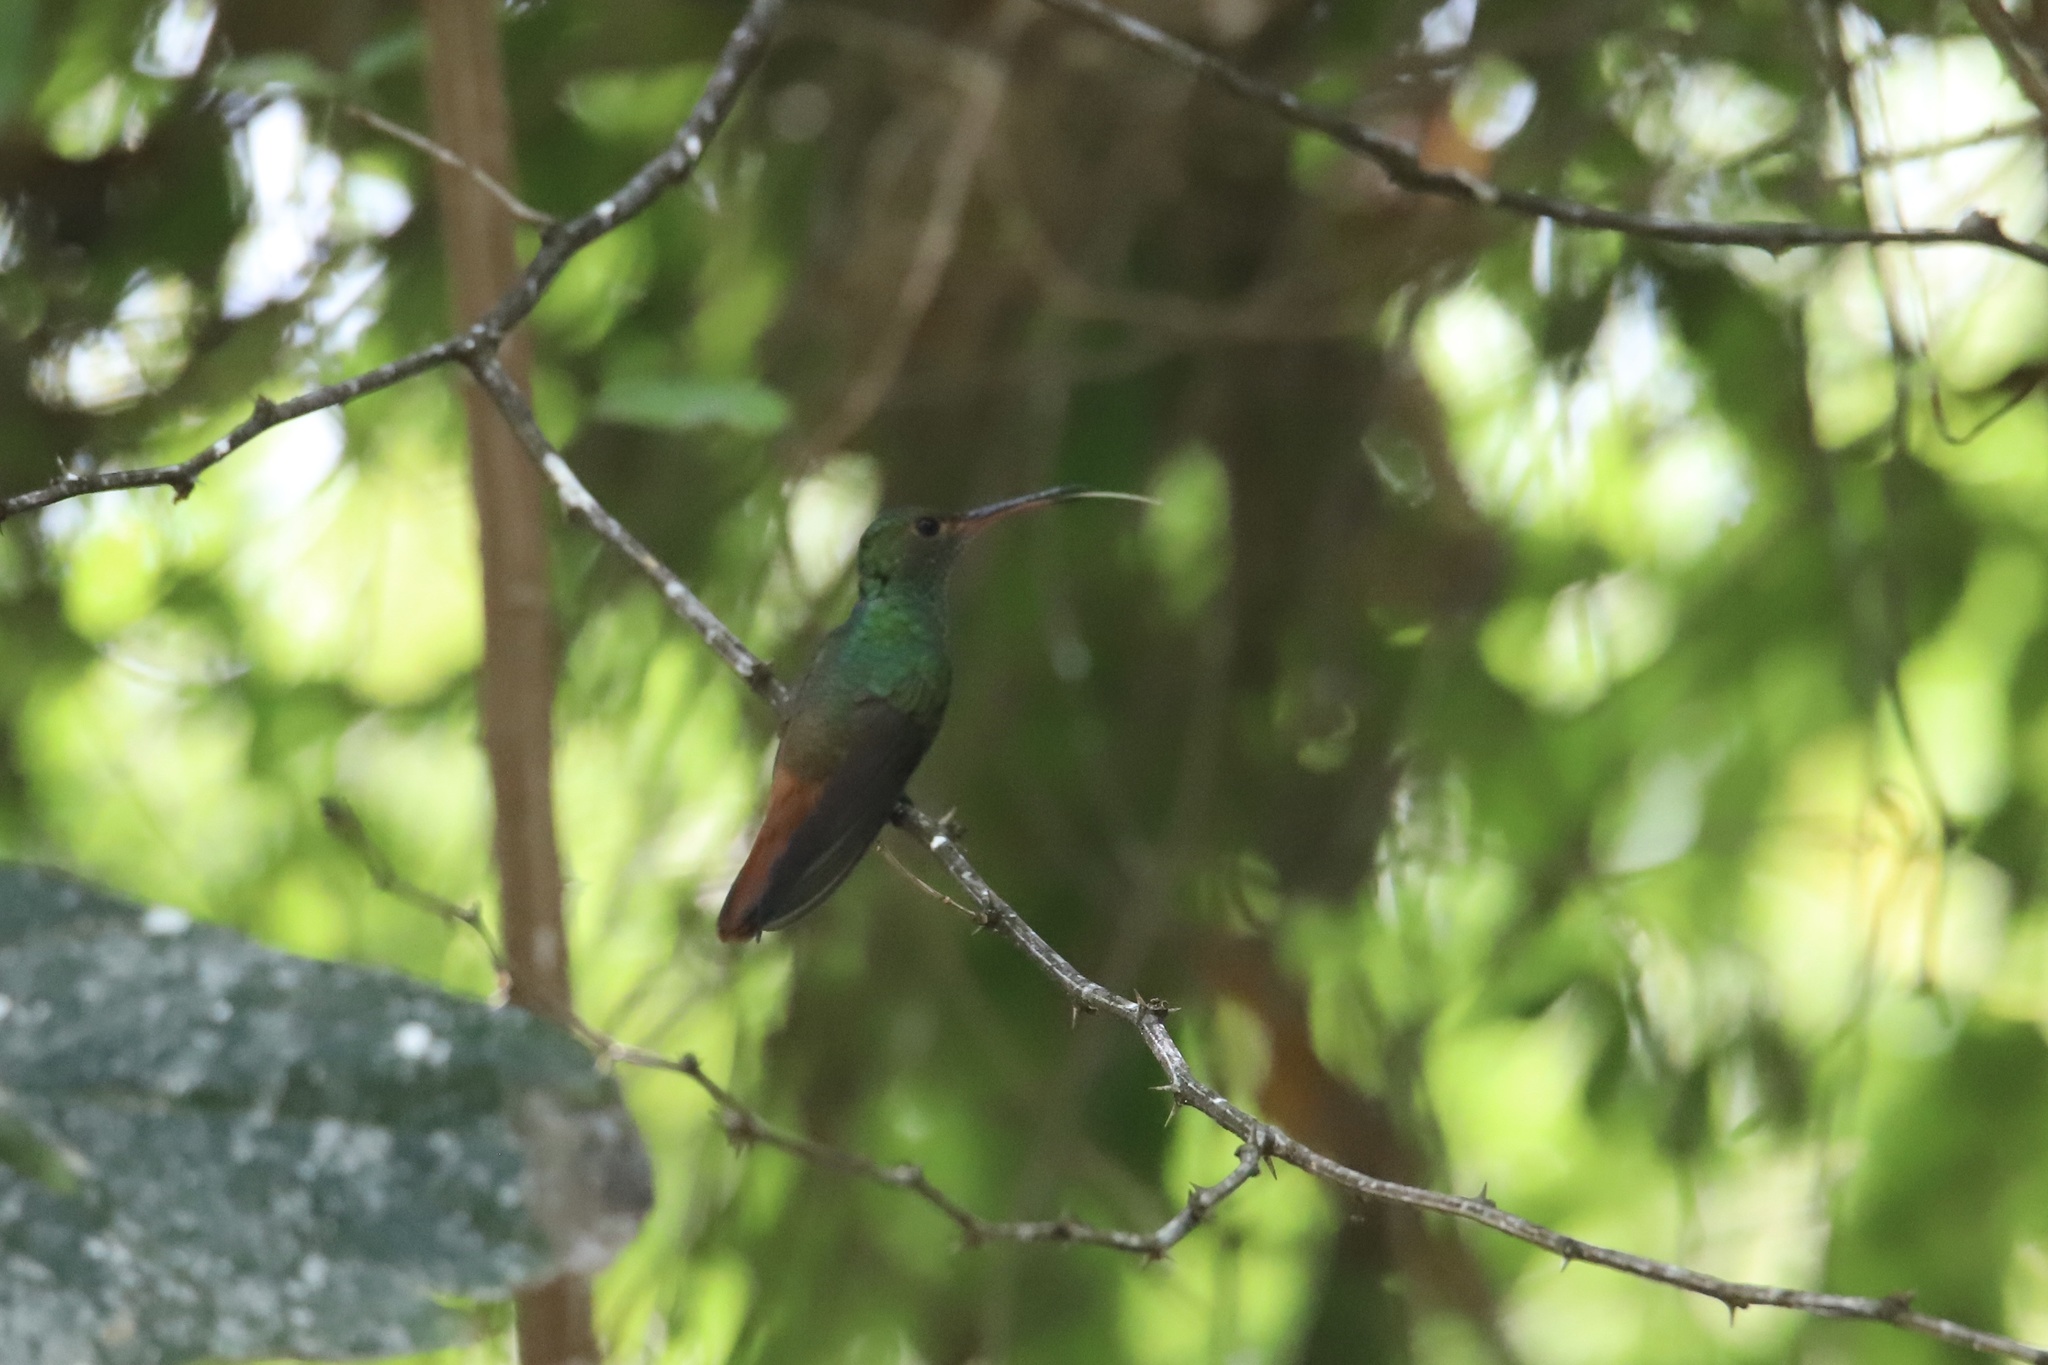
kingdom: Animalia
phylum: Chordata
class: Aves
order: Apodiformes
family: Trochilidae
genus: Amazilia
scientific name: Amazilia tzacatl
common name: Rufous-tailed hummingbird
